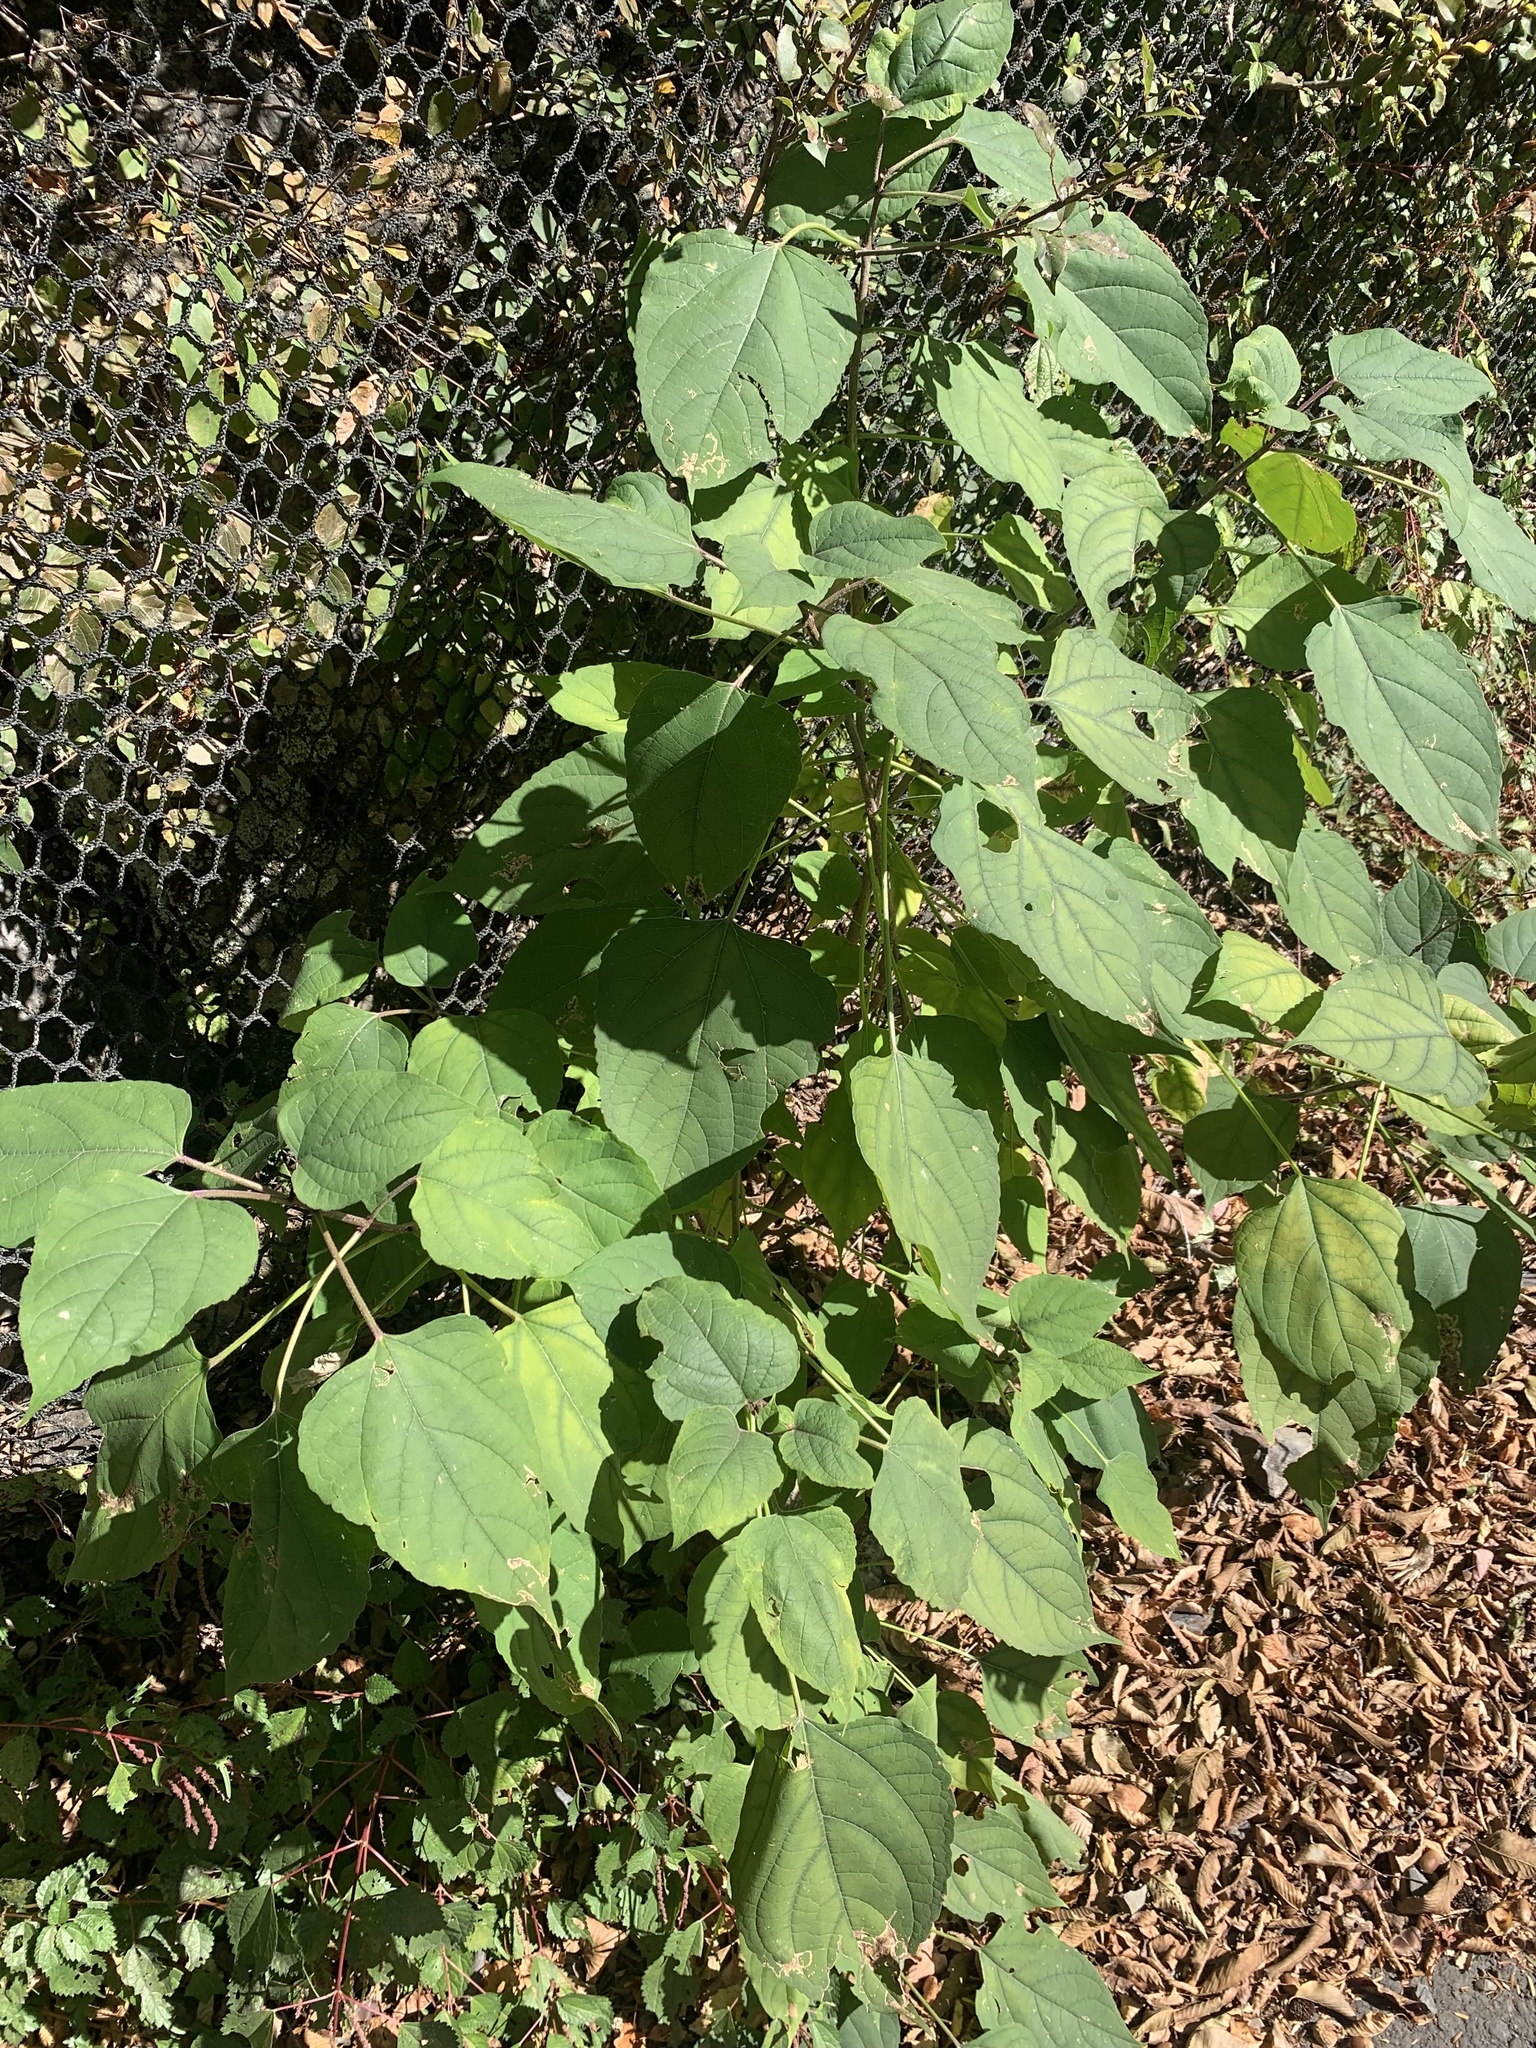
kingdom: Plantae
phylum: Tracheophyta
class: Magnoliopsida
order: Lamiales
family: Lamiaceae
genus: Clerodendrum
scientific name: Clerodendrum trichotomum
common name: Harlequin glorybower
